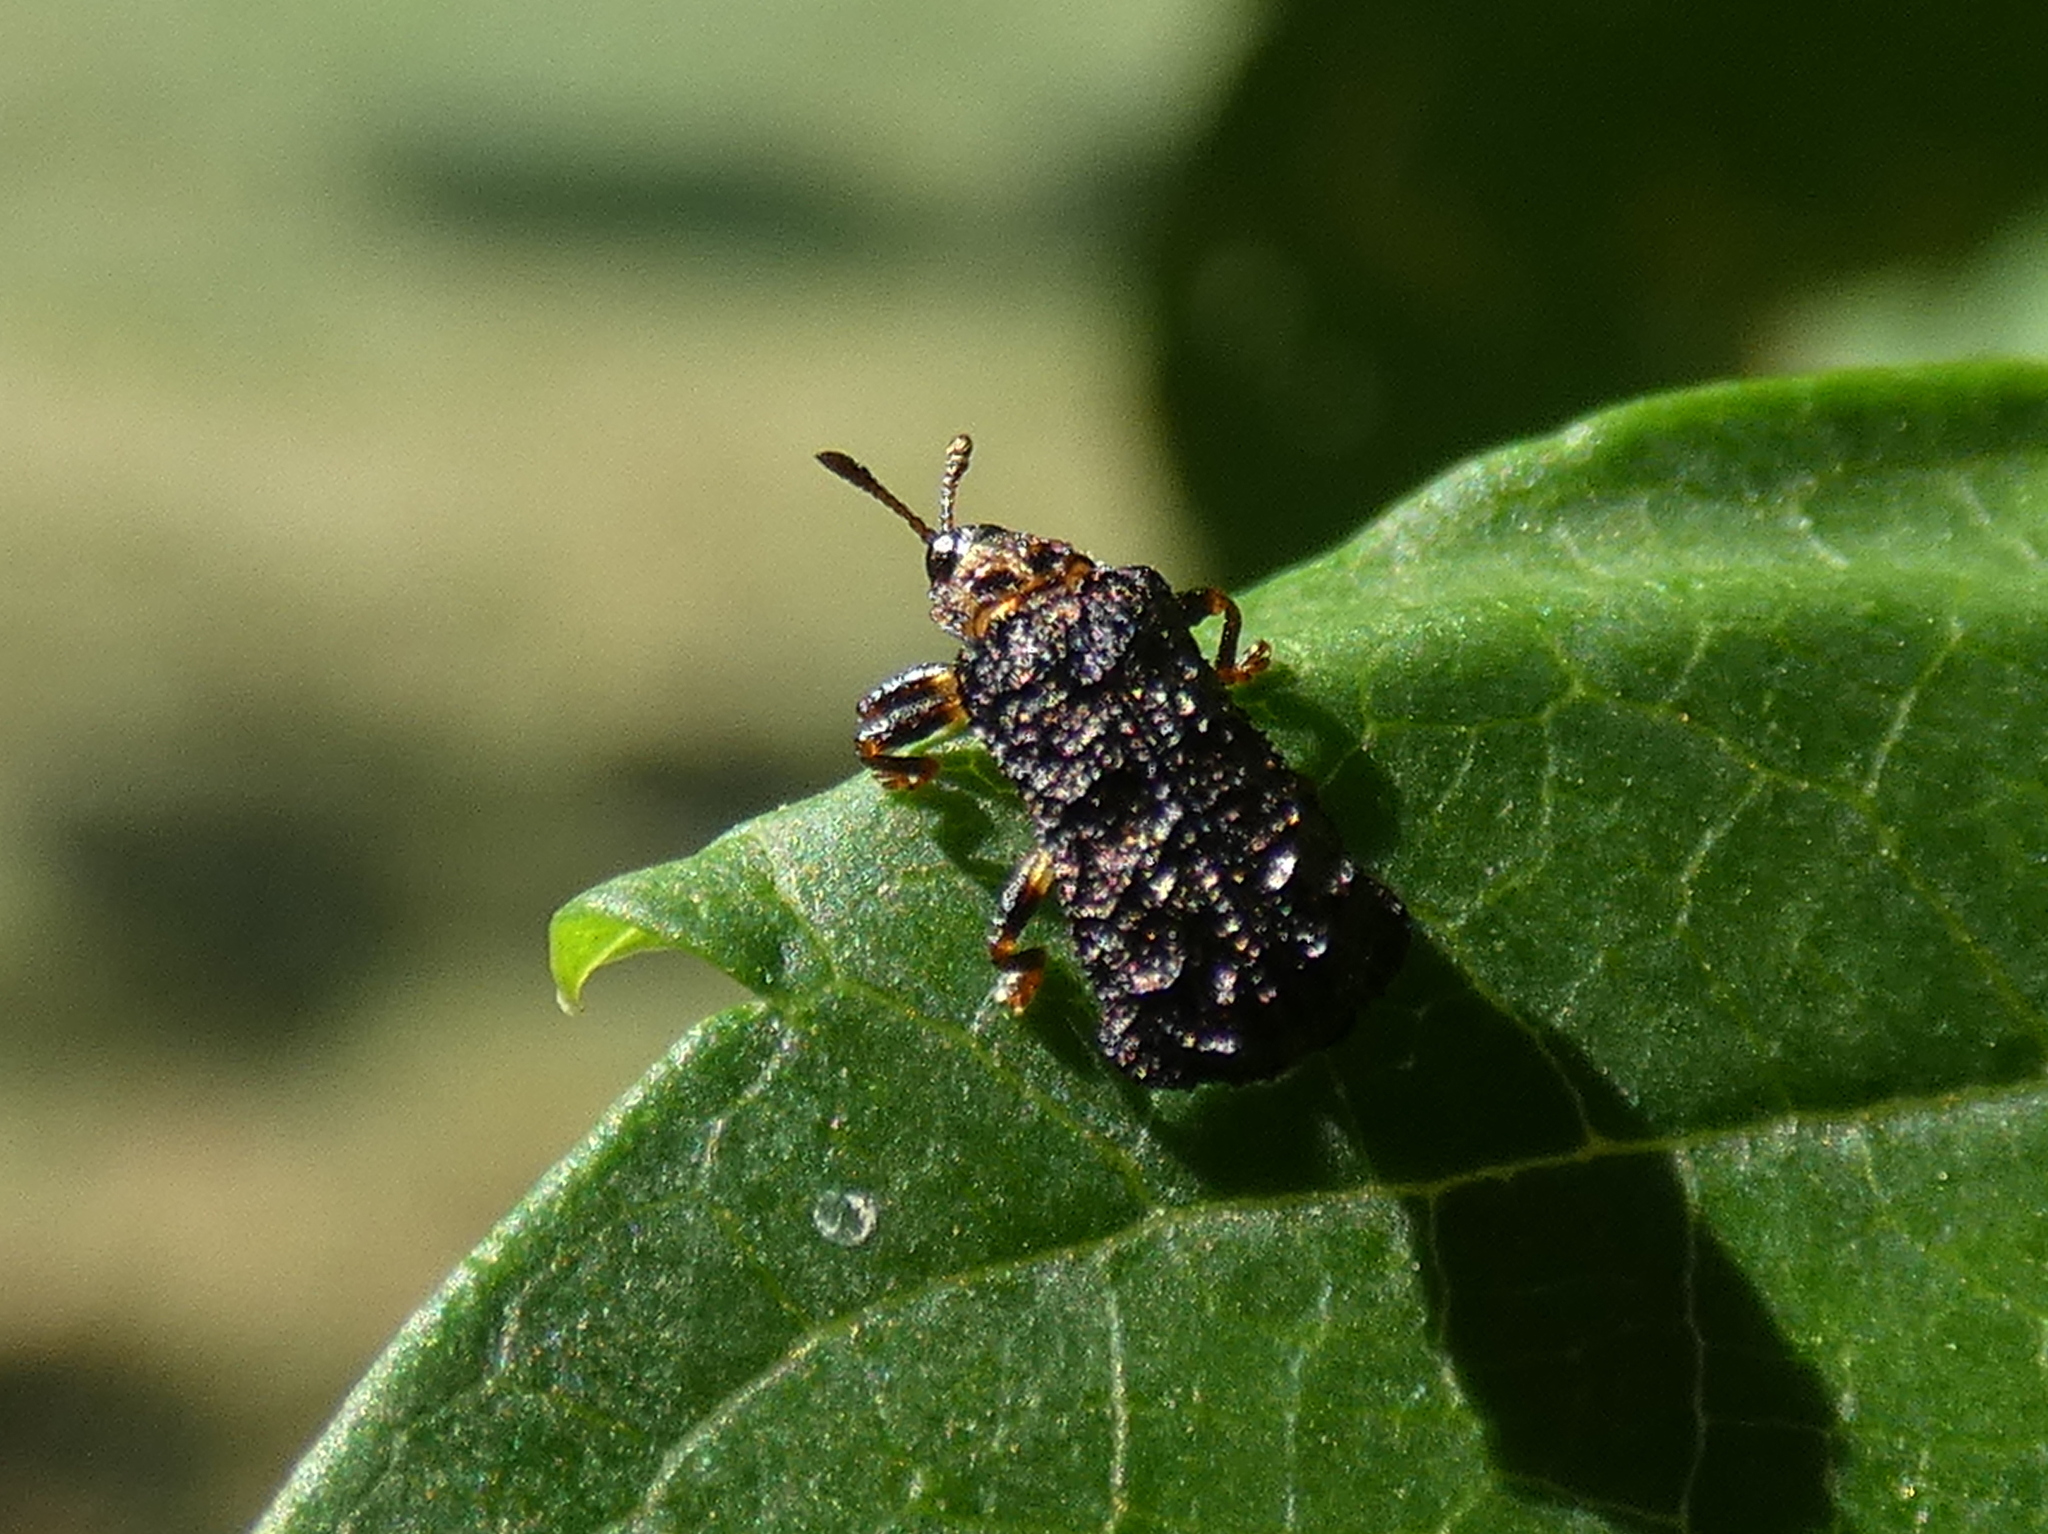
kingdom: Animalia
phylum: Arthropoda
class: Insecta
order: Coleoptera
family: Chrysomelidae
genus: Octotoma
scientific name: Octotoma plicatula
